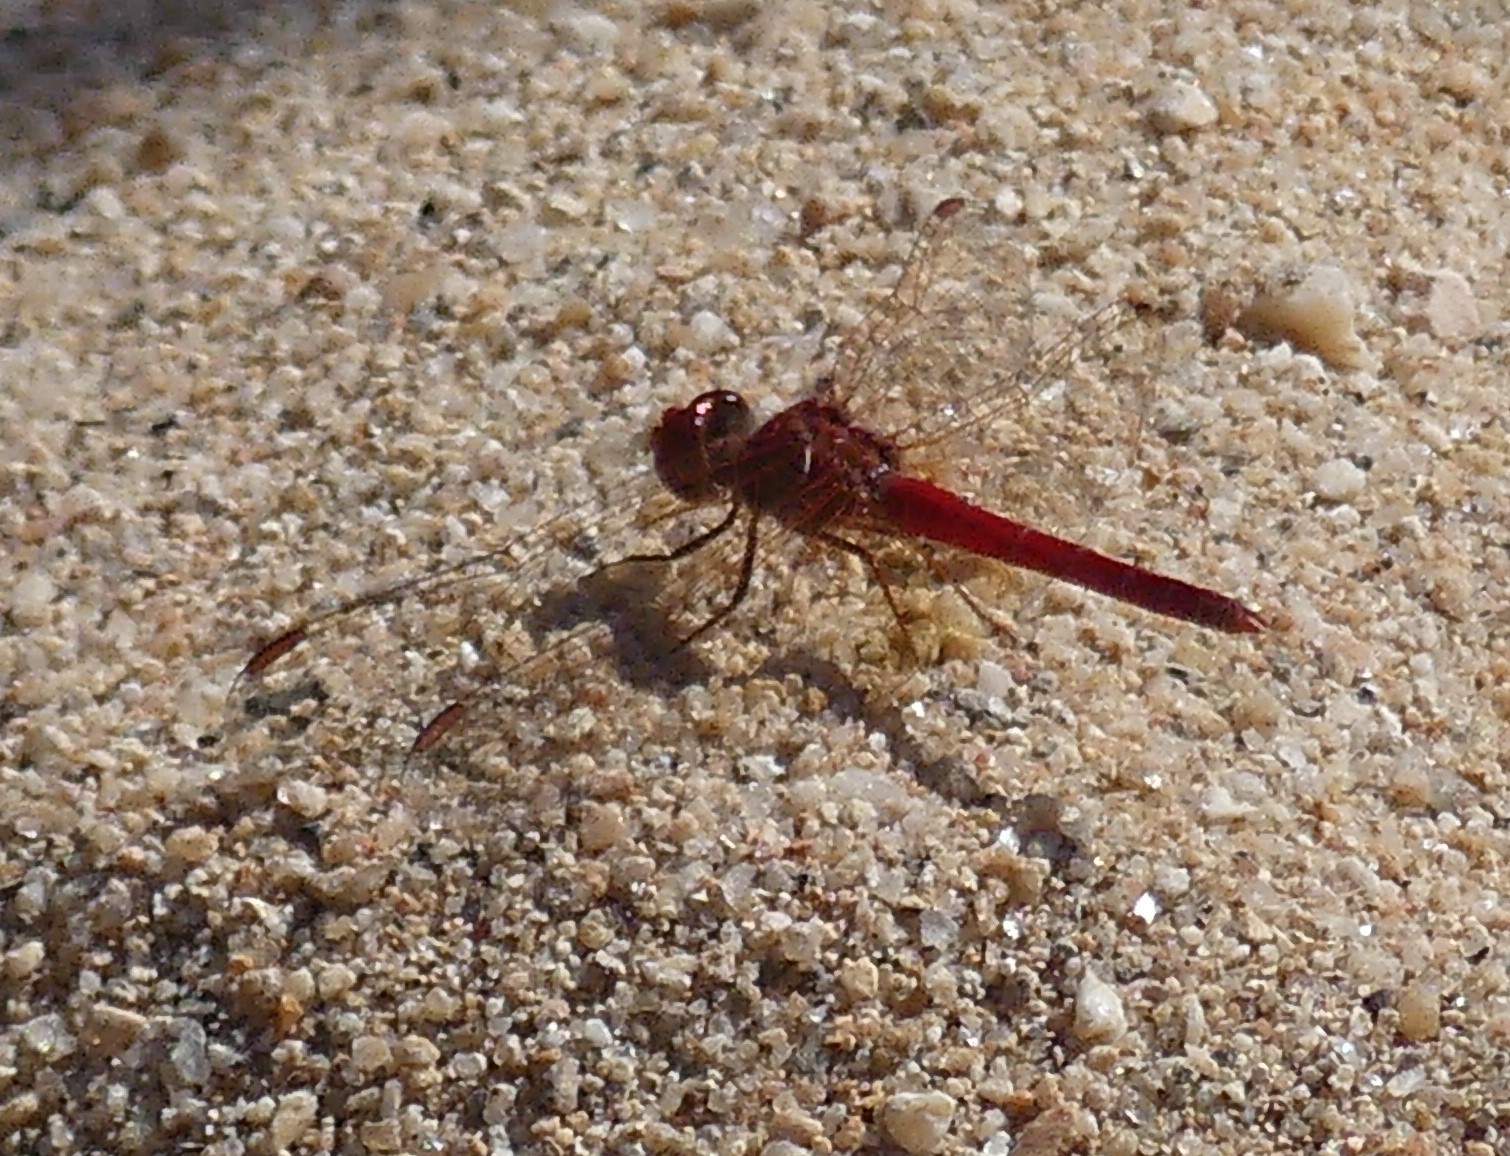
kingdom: Animalia
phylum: Arthropoda
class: Insecta
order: Odonata
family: Libellulidae
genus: Diplacodes
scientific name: Diplacodes haematodes
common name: Scarlet percher
